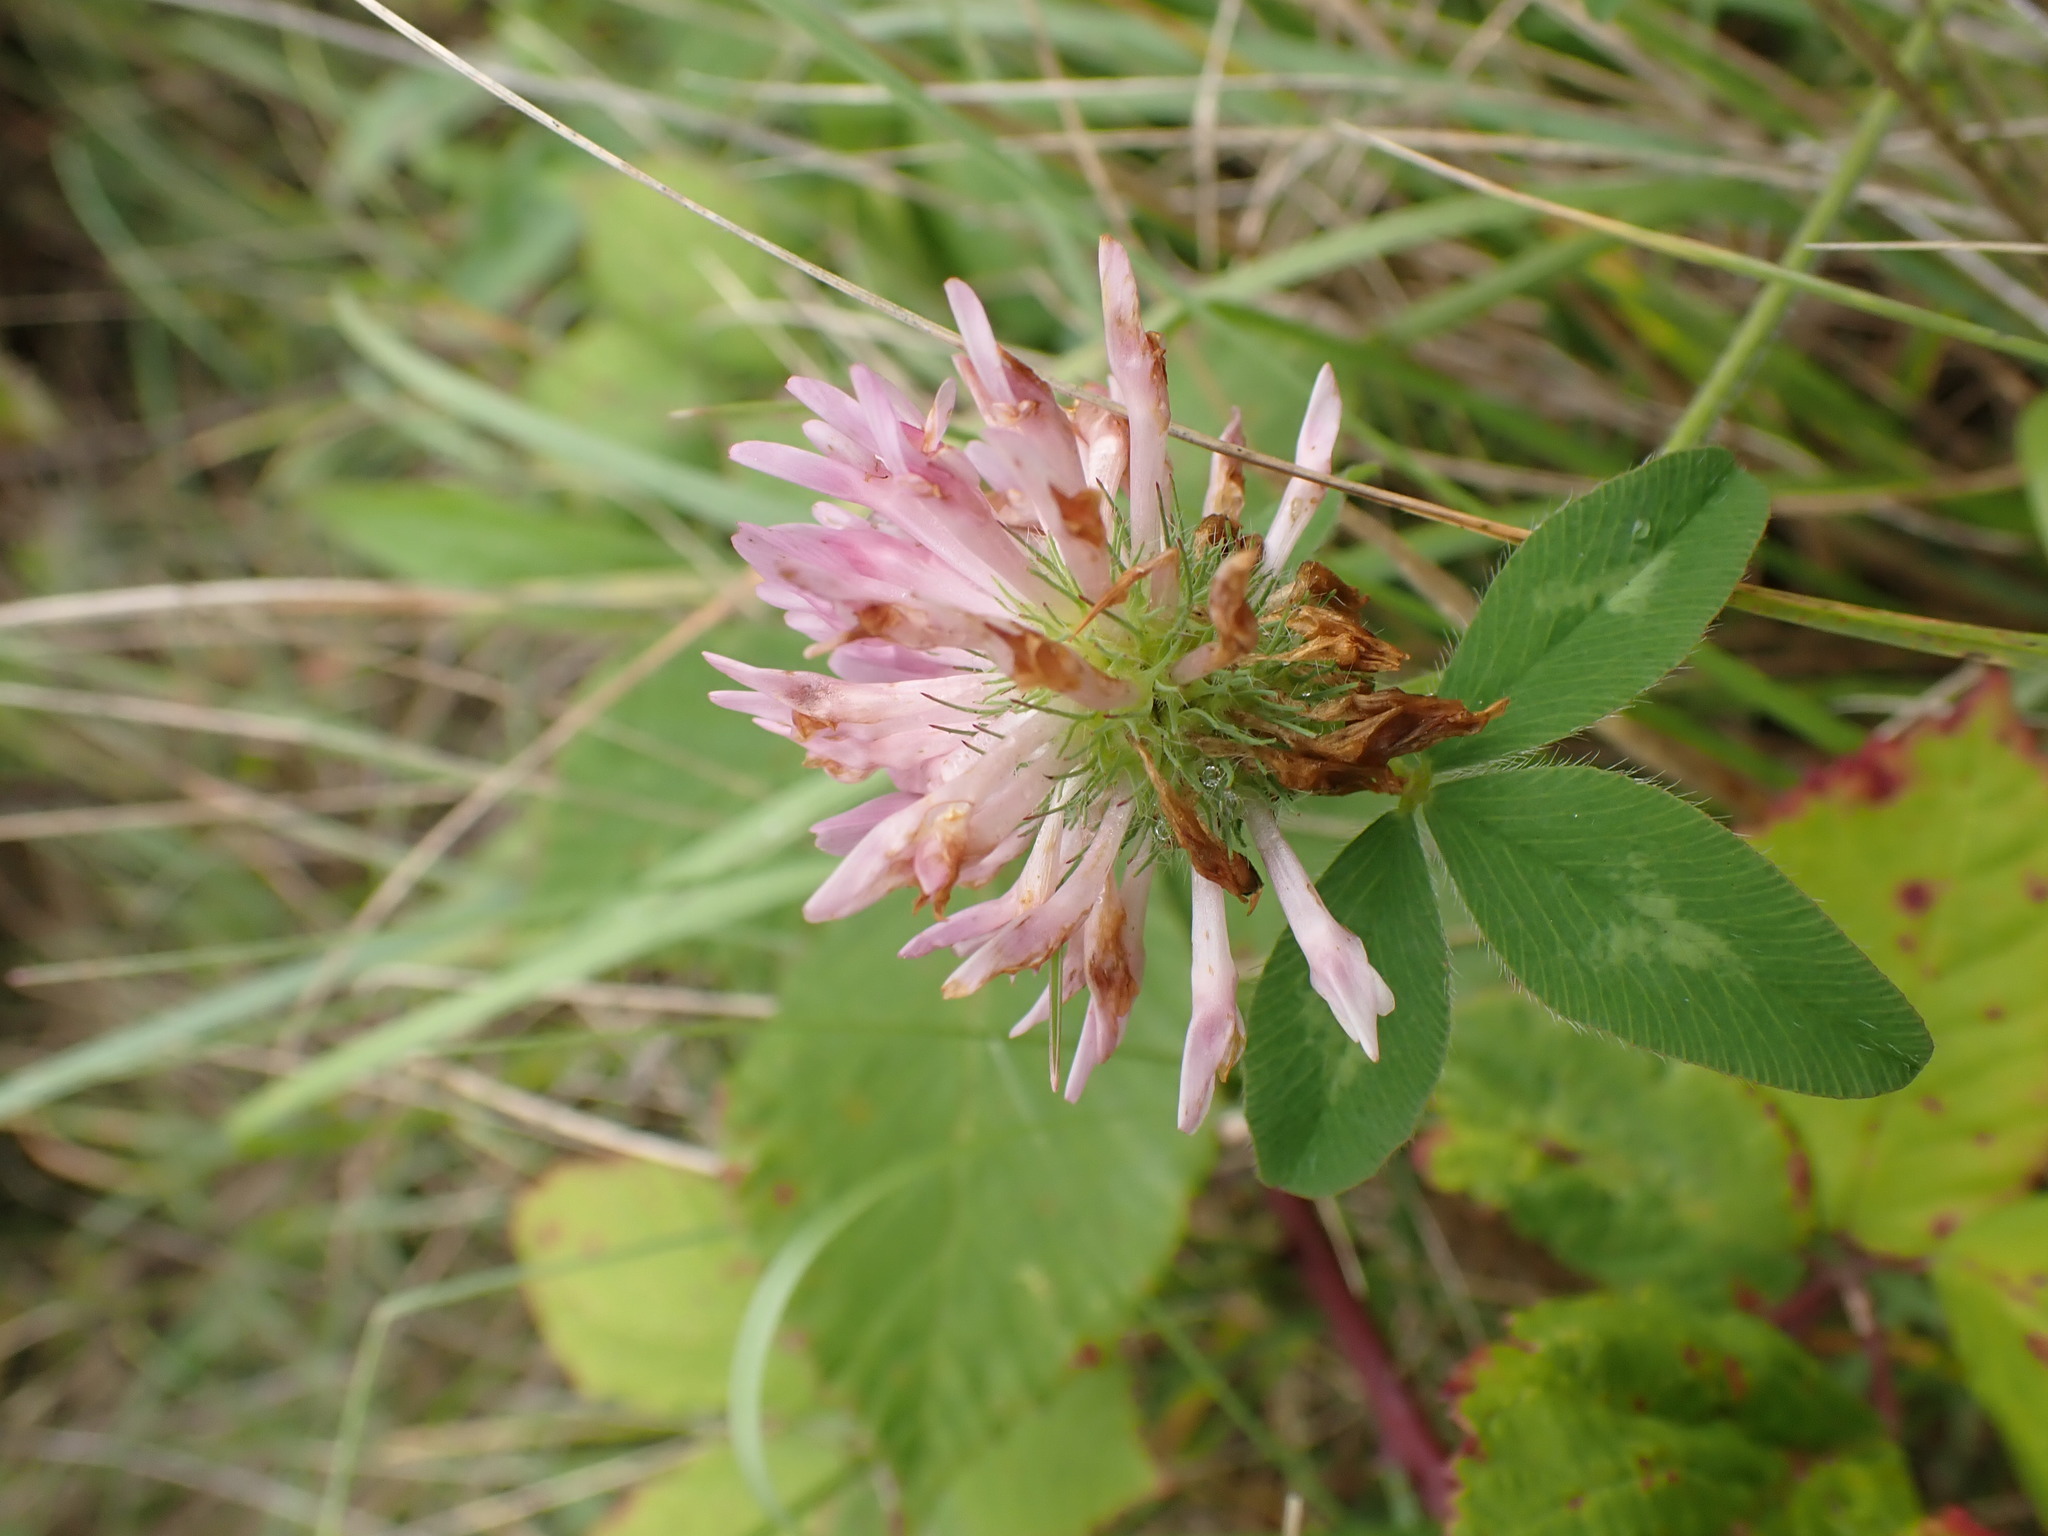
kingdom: Plantae
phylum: Tracheophyta
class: Magnoliopsida
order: Fabales
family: Fabaceae
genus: Trifolium
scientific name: Trifolium pratense
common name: Red clover
